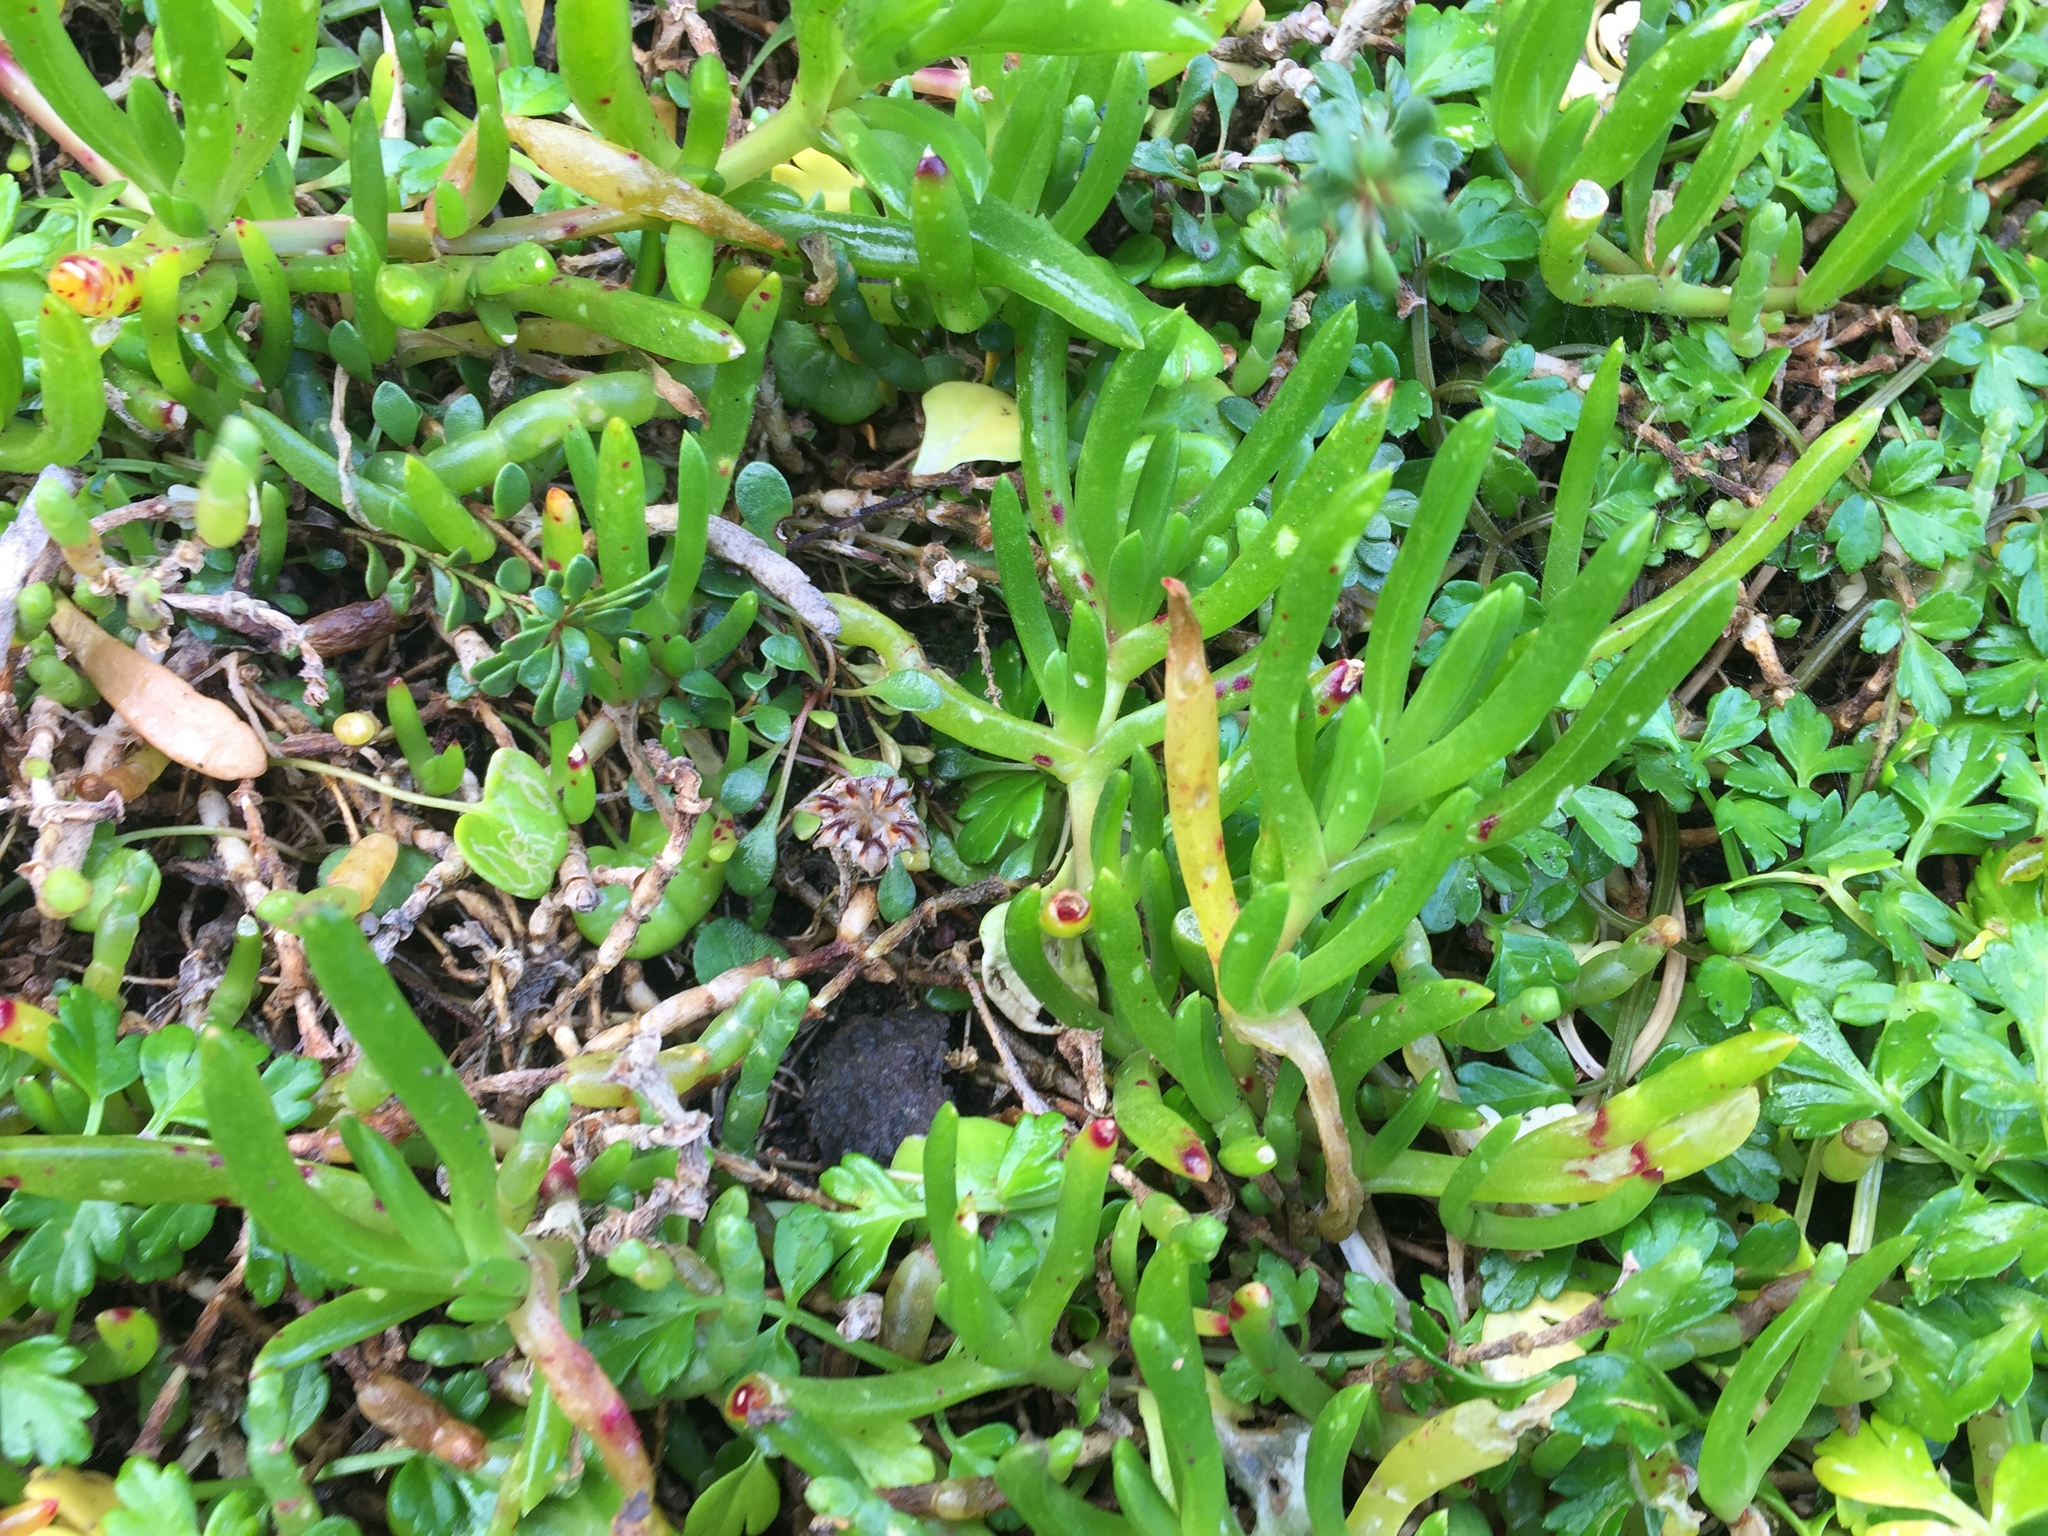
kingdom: Plantae
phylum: Tracheophyta
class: Magnoliopsida
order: Caryophyllales
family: Aizoaceae
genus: Disphyma
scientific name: Disphyma australe
